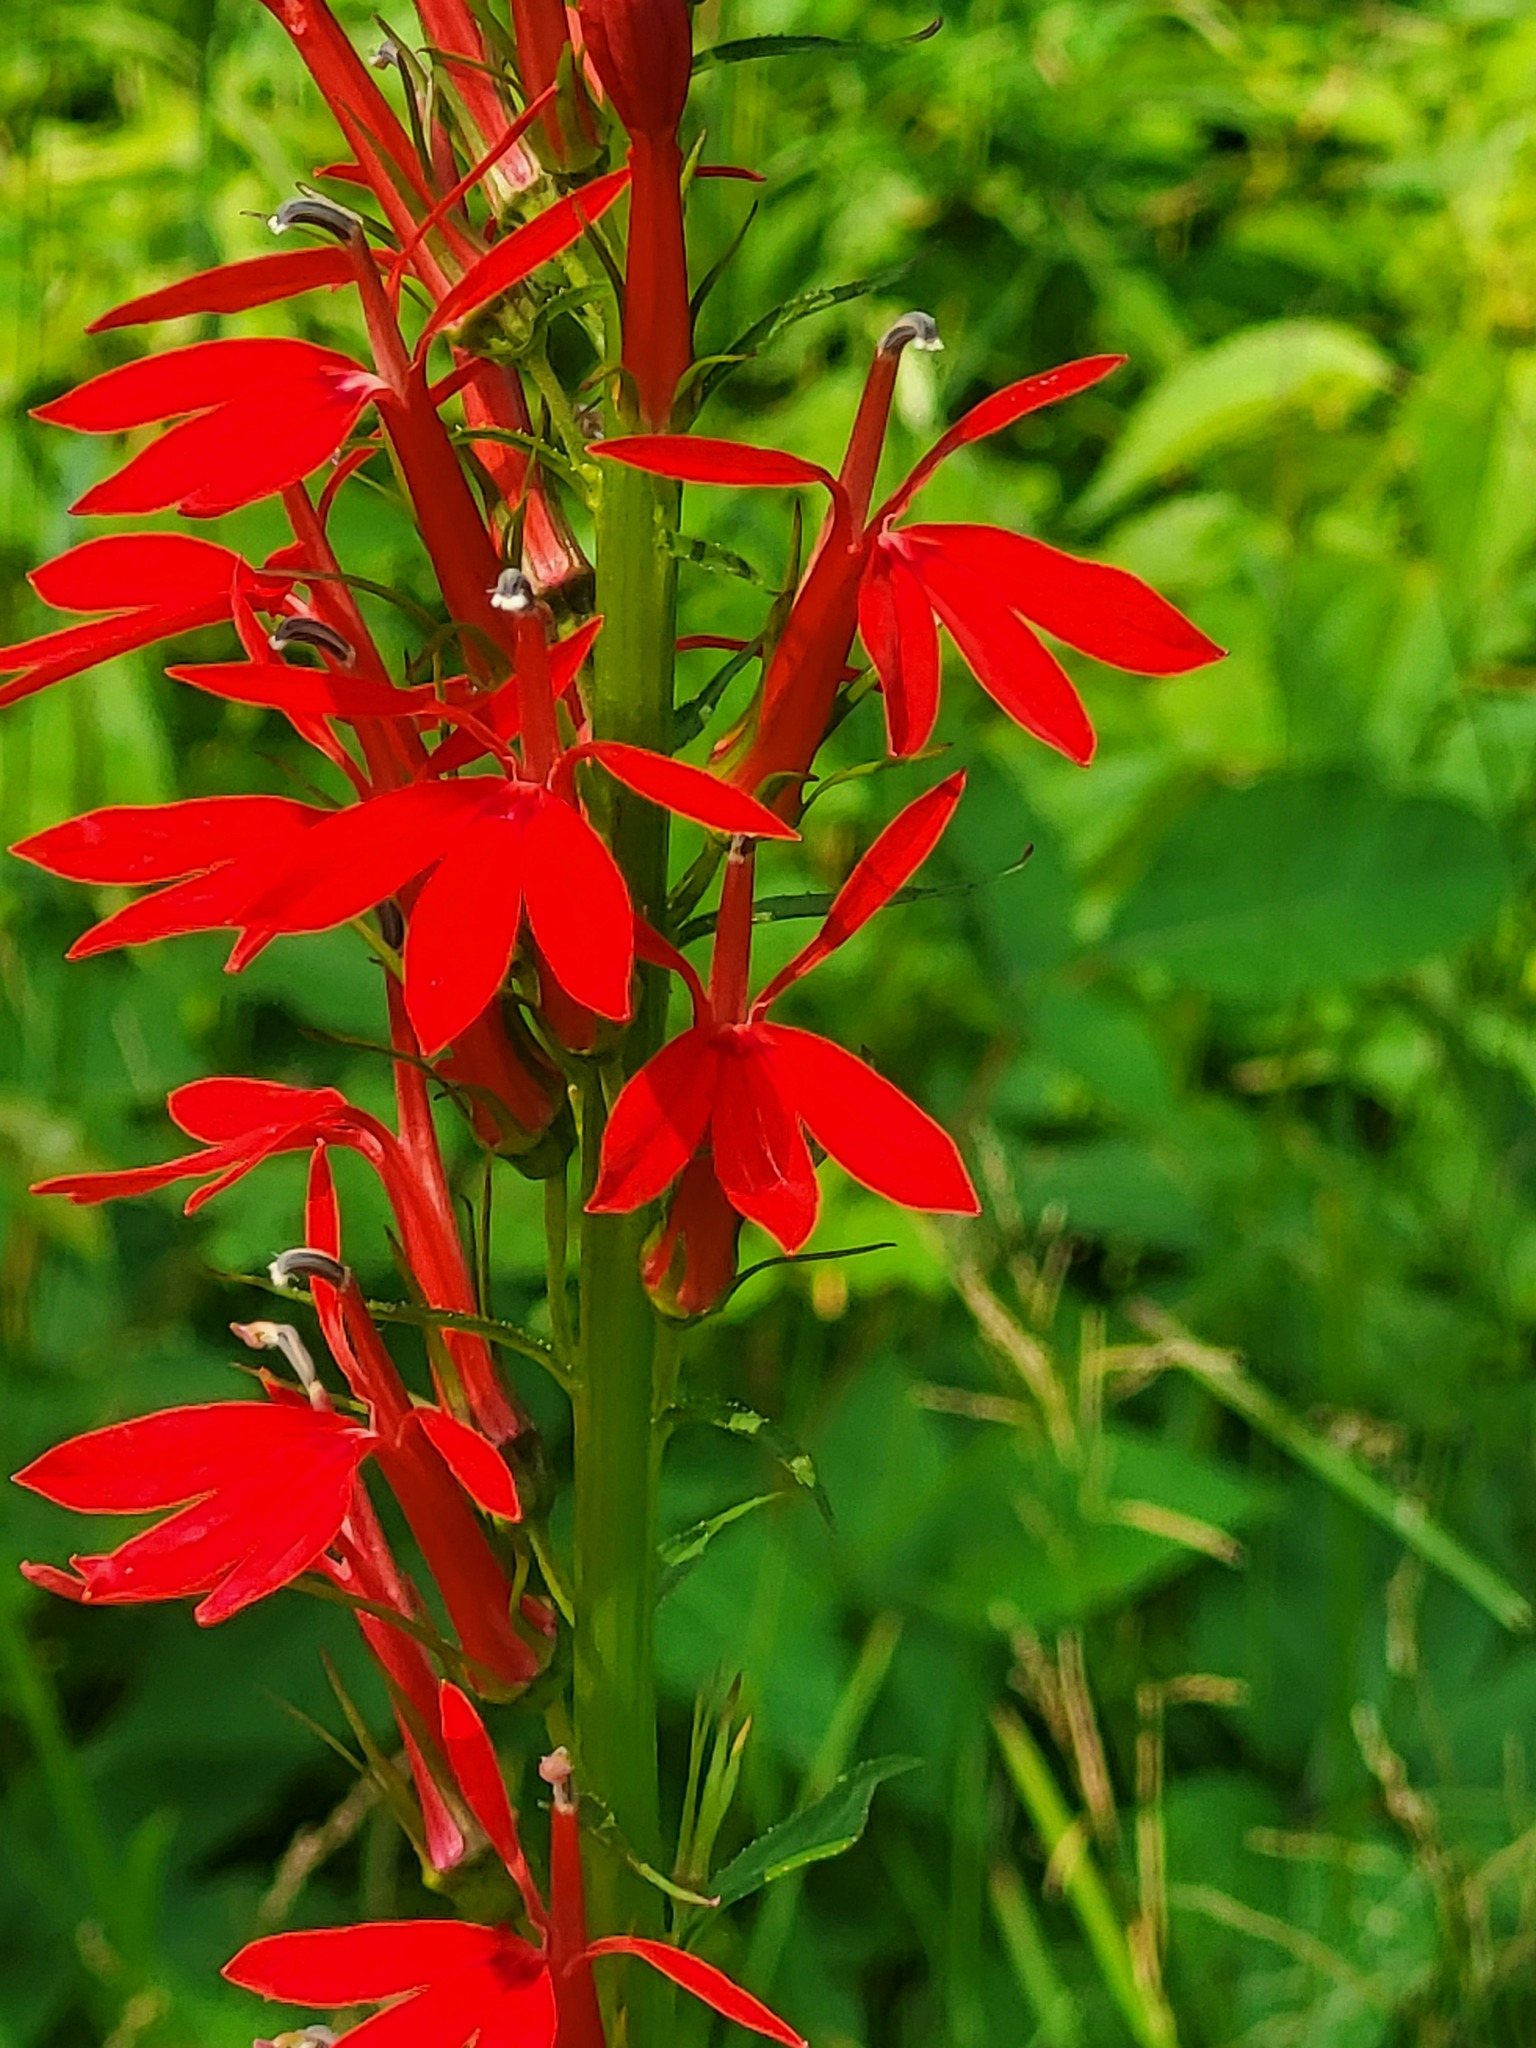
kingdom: Plantae
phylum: Tracheophyta
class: Magnoliopsida
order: Asterales
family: Campanulaceae
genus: Lobelia
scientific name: Lobelia cardinalis
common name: Cardinal flower
